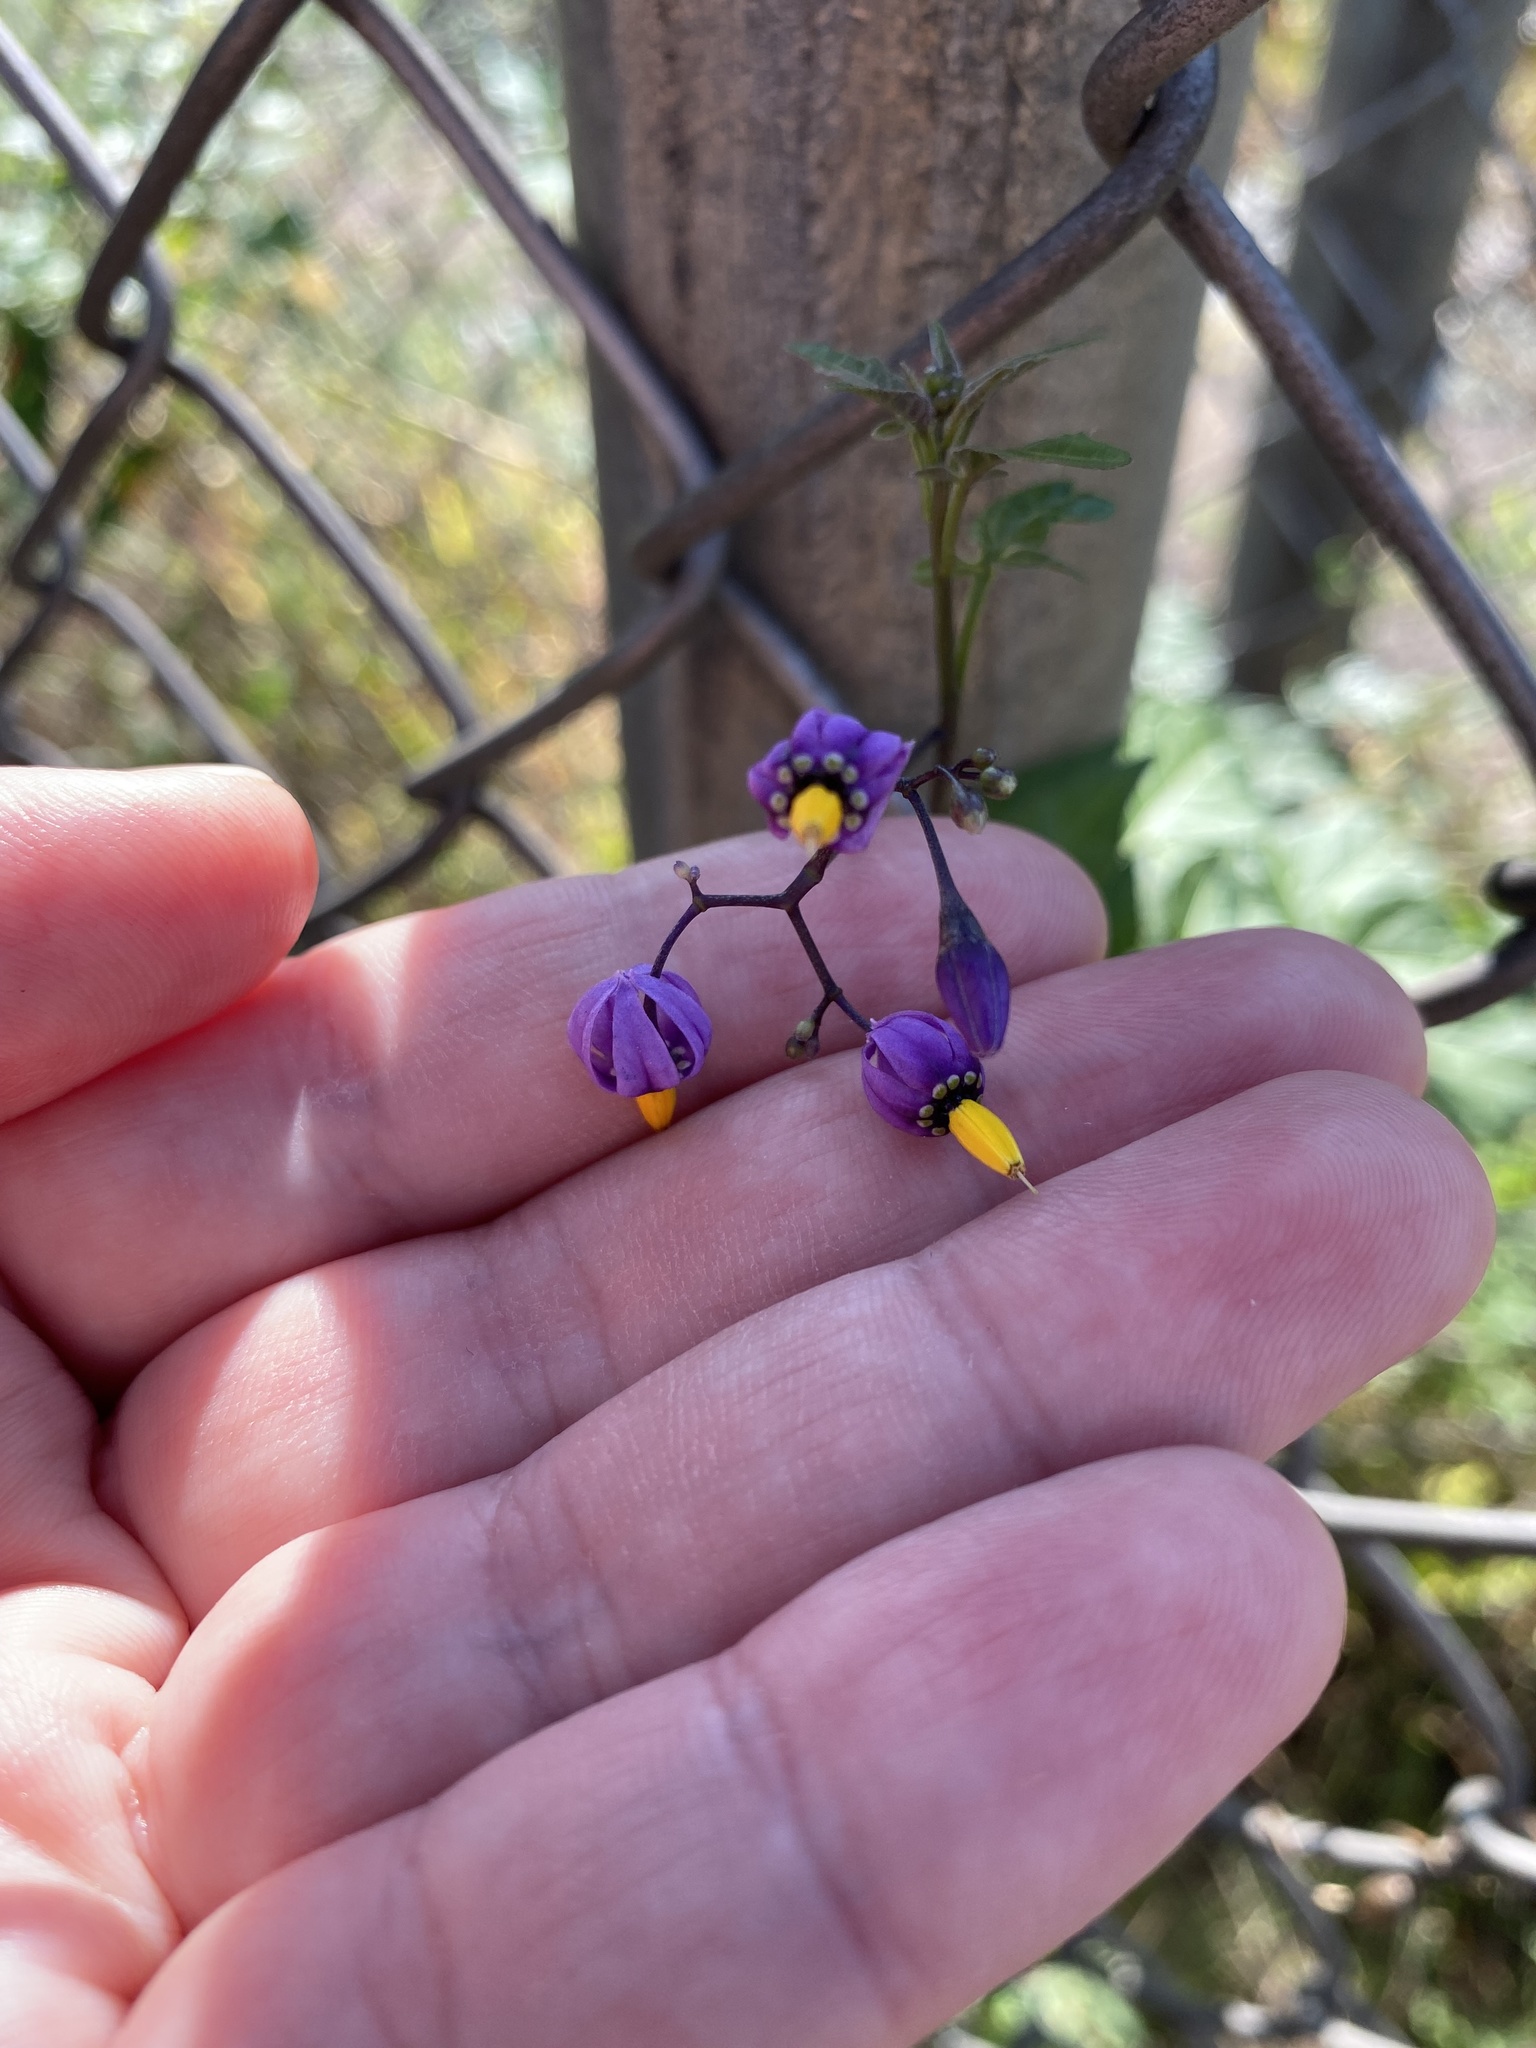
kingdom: Plantae
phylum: Tracheophyta
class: Magnoliopsida
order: Solanales
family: Solanaceae
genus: Solanum
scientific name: Solanum dulcamara
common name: Climbing nightshade
